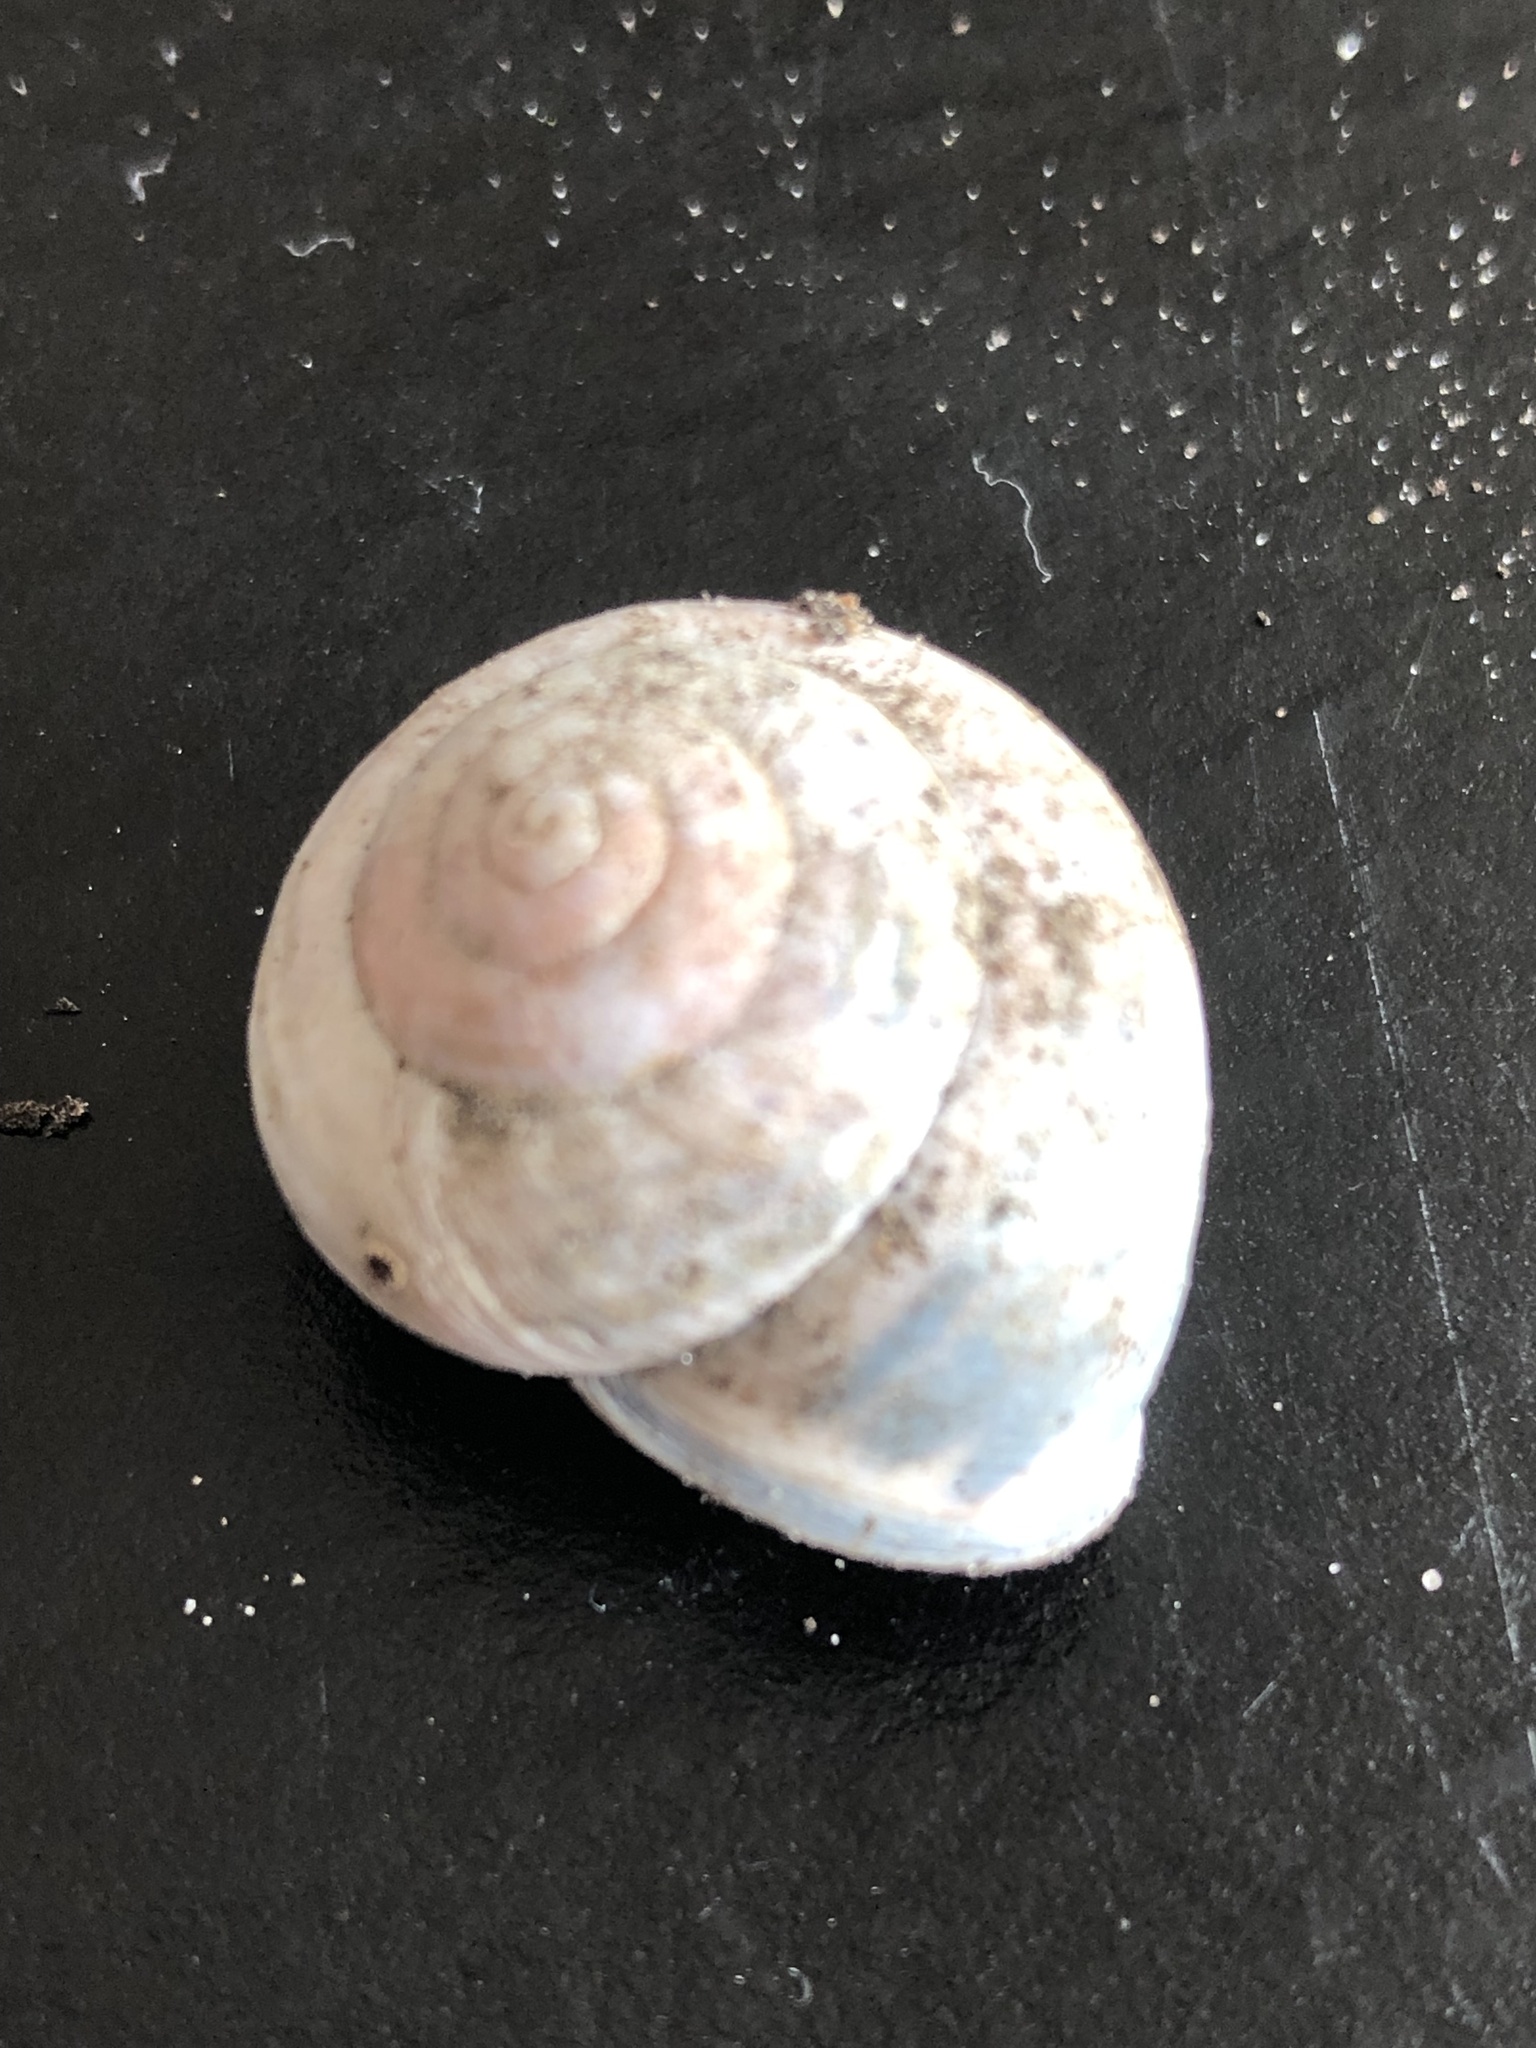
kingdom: Animalia
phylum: Mollusca
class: Gastropoda
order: Stylommatophora
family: Helicidae
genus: Cepaea
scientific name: Cepaea nemoralis
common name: Grovesnail
